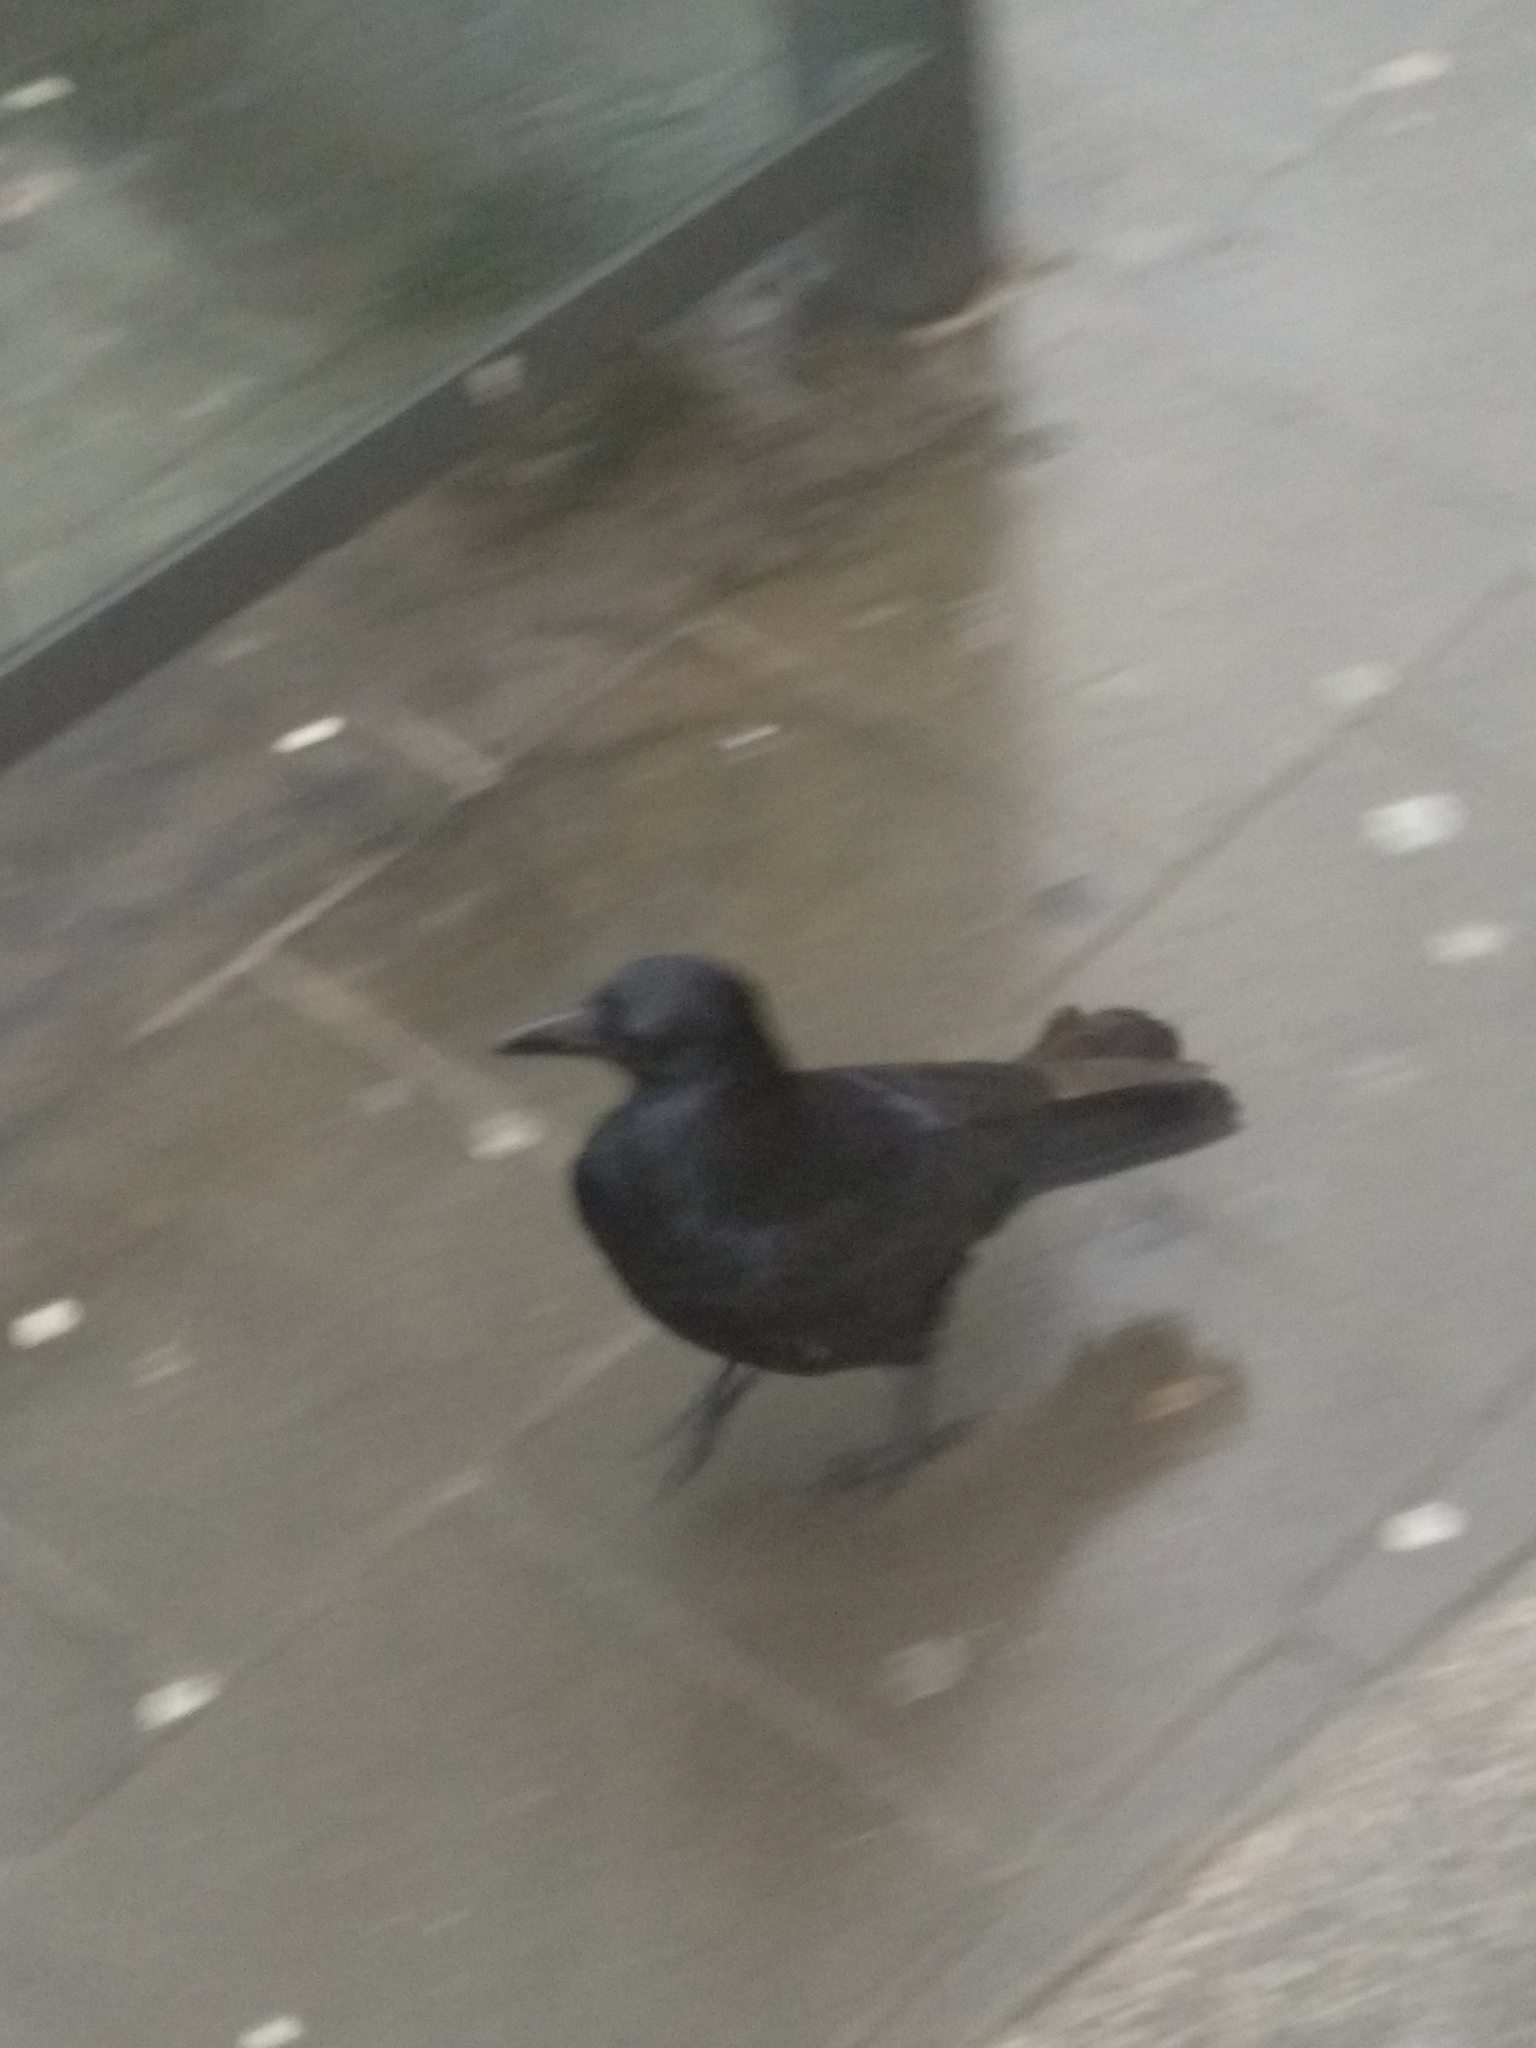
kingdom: Animalia
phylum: Chordata
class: Aves
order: Passeriformes
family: Corvidae
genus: Corvus
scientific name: Corvus corone
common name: Carrion crow
